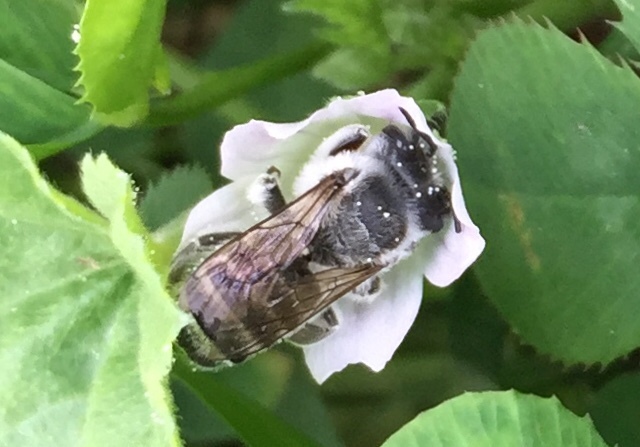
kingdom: Animalia
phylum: Arthropoda
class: Insecta
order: Hymenoptera
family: Megachilidae
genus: Megachile
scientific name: Megachile
